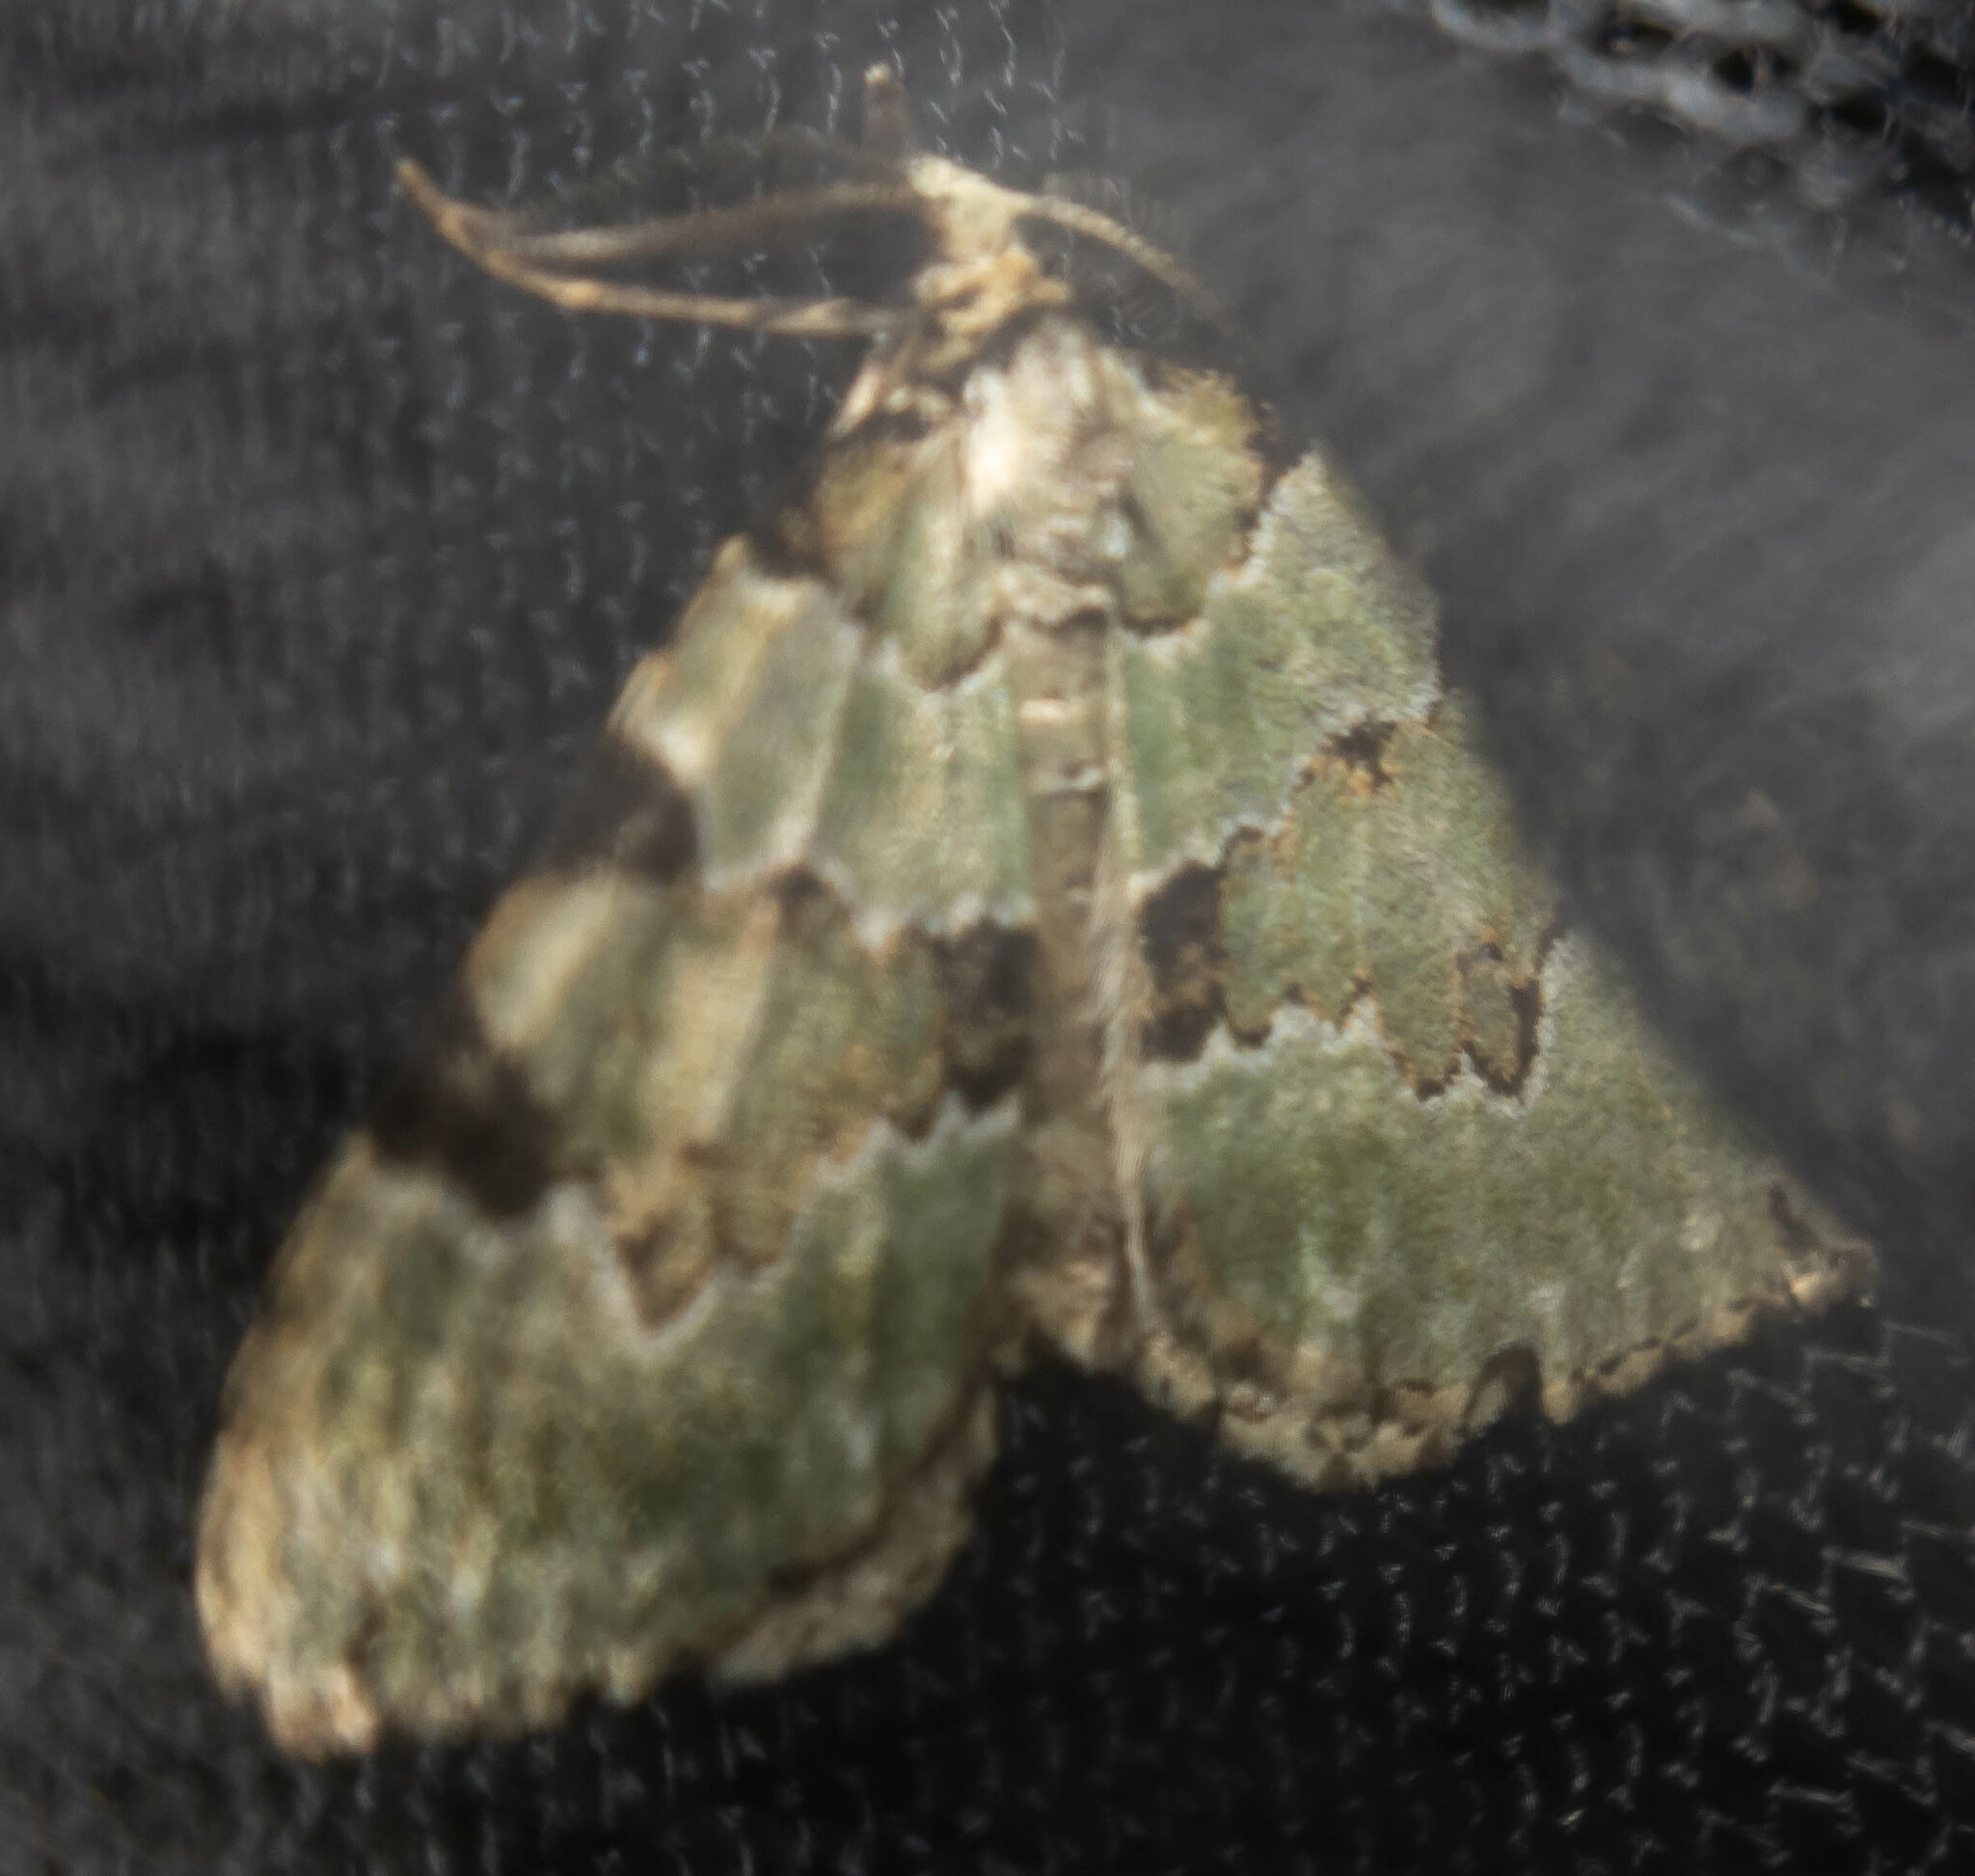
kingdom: Animalia
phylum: Arthropoda
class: Insecta
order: Lepidoptera
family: Geometridae
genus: Colostygia
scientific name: Colostygia pectinataria
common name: Green carpet
